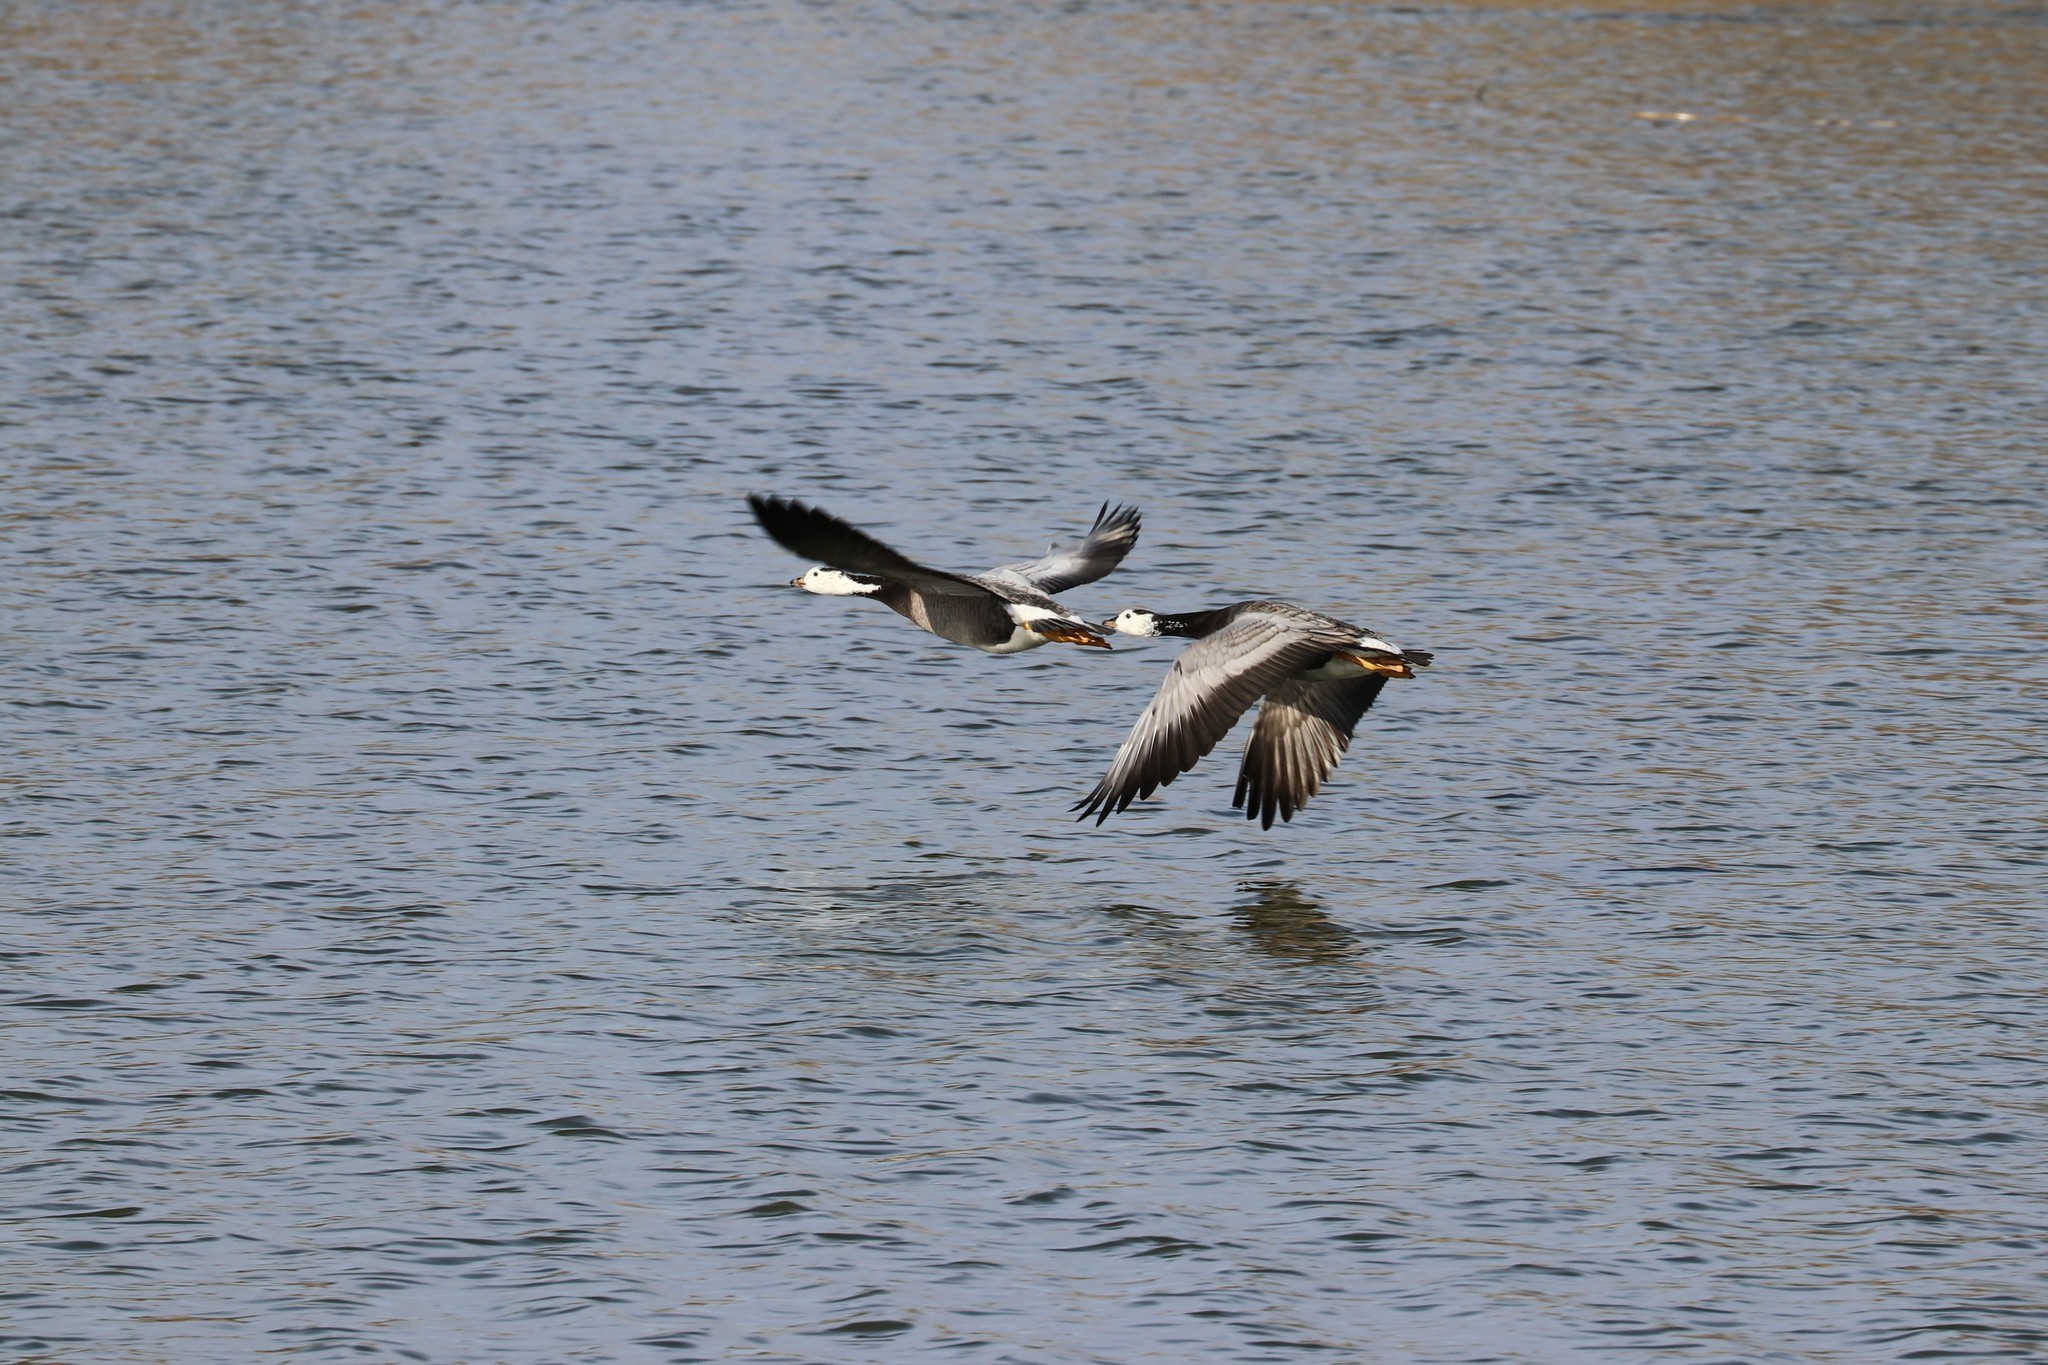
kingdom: Animalia
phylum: Chordata
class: Aves
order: Anseriformes
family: Anatidae
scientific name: Anatidae
